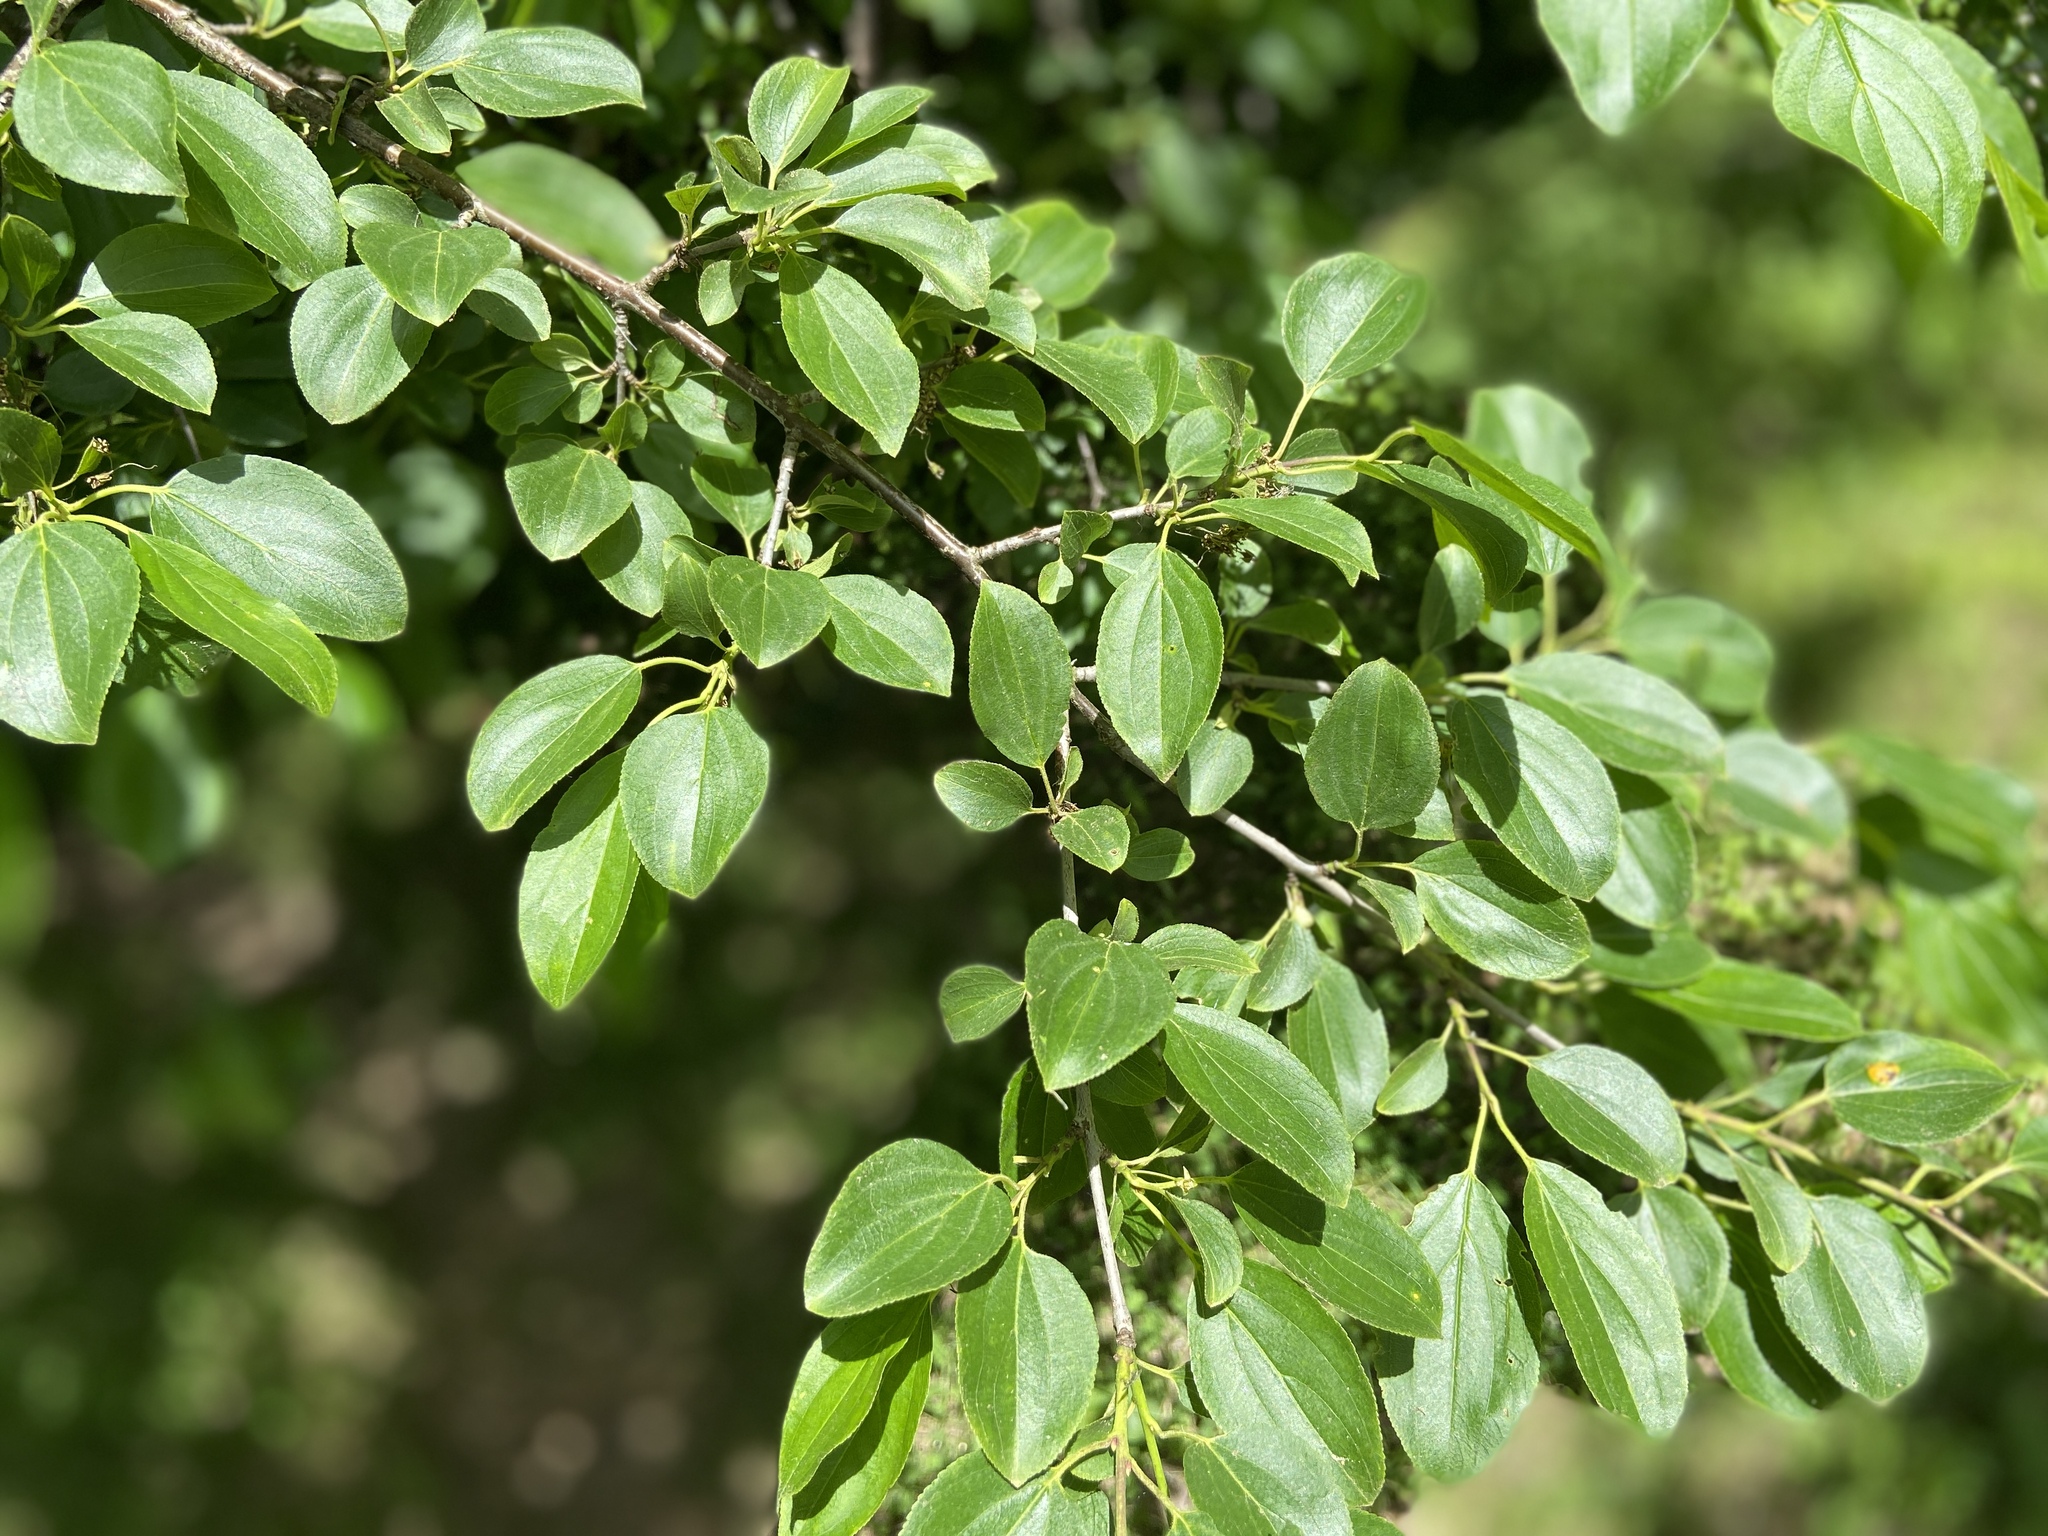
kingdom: Plantae
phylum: Tracheophyta
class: Magnoliopsida
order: Rosales
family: Rhamnaceae
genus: Rhamnus
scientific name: Rhamnus cathartica
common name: Common buckthorn
